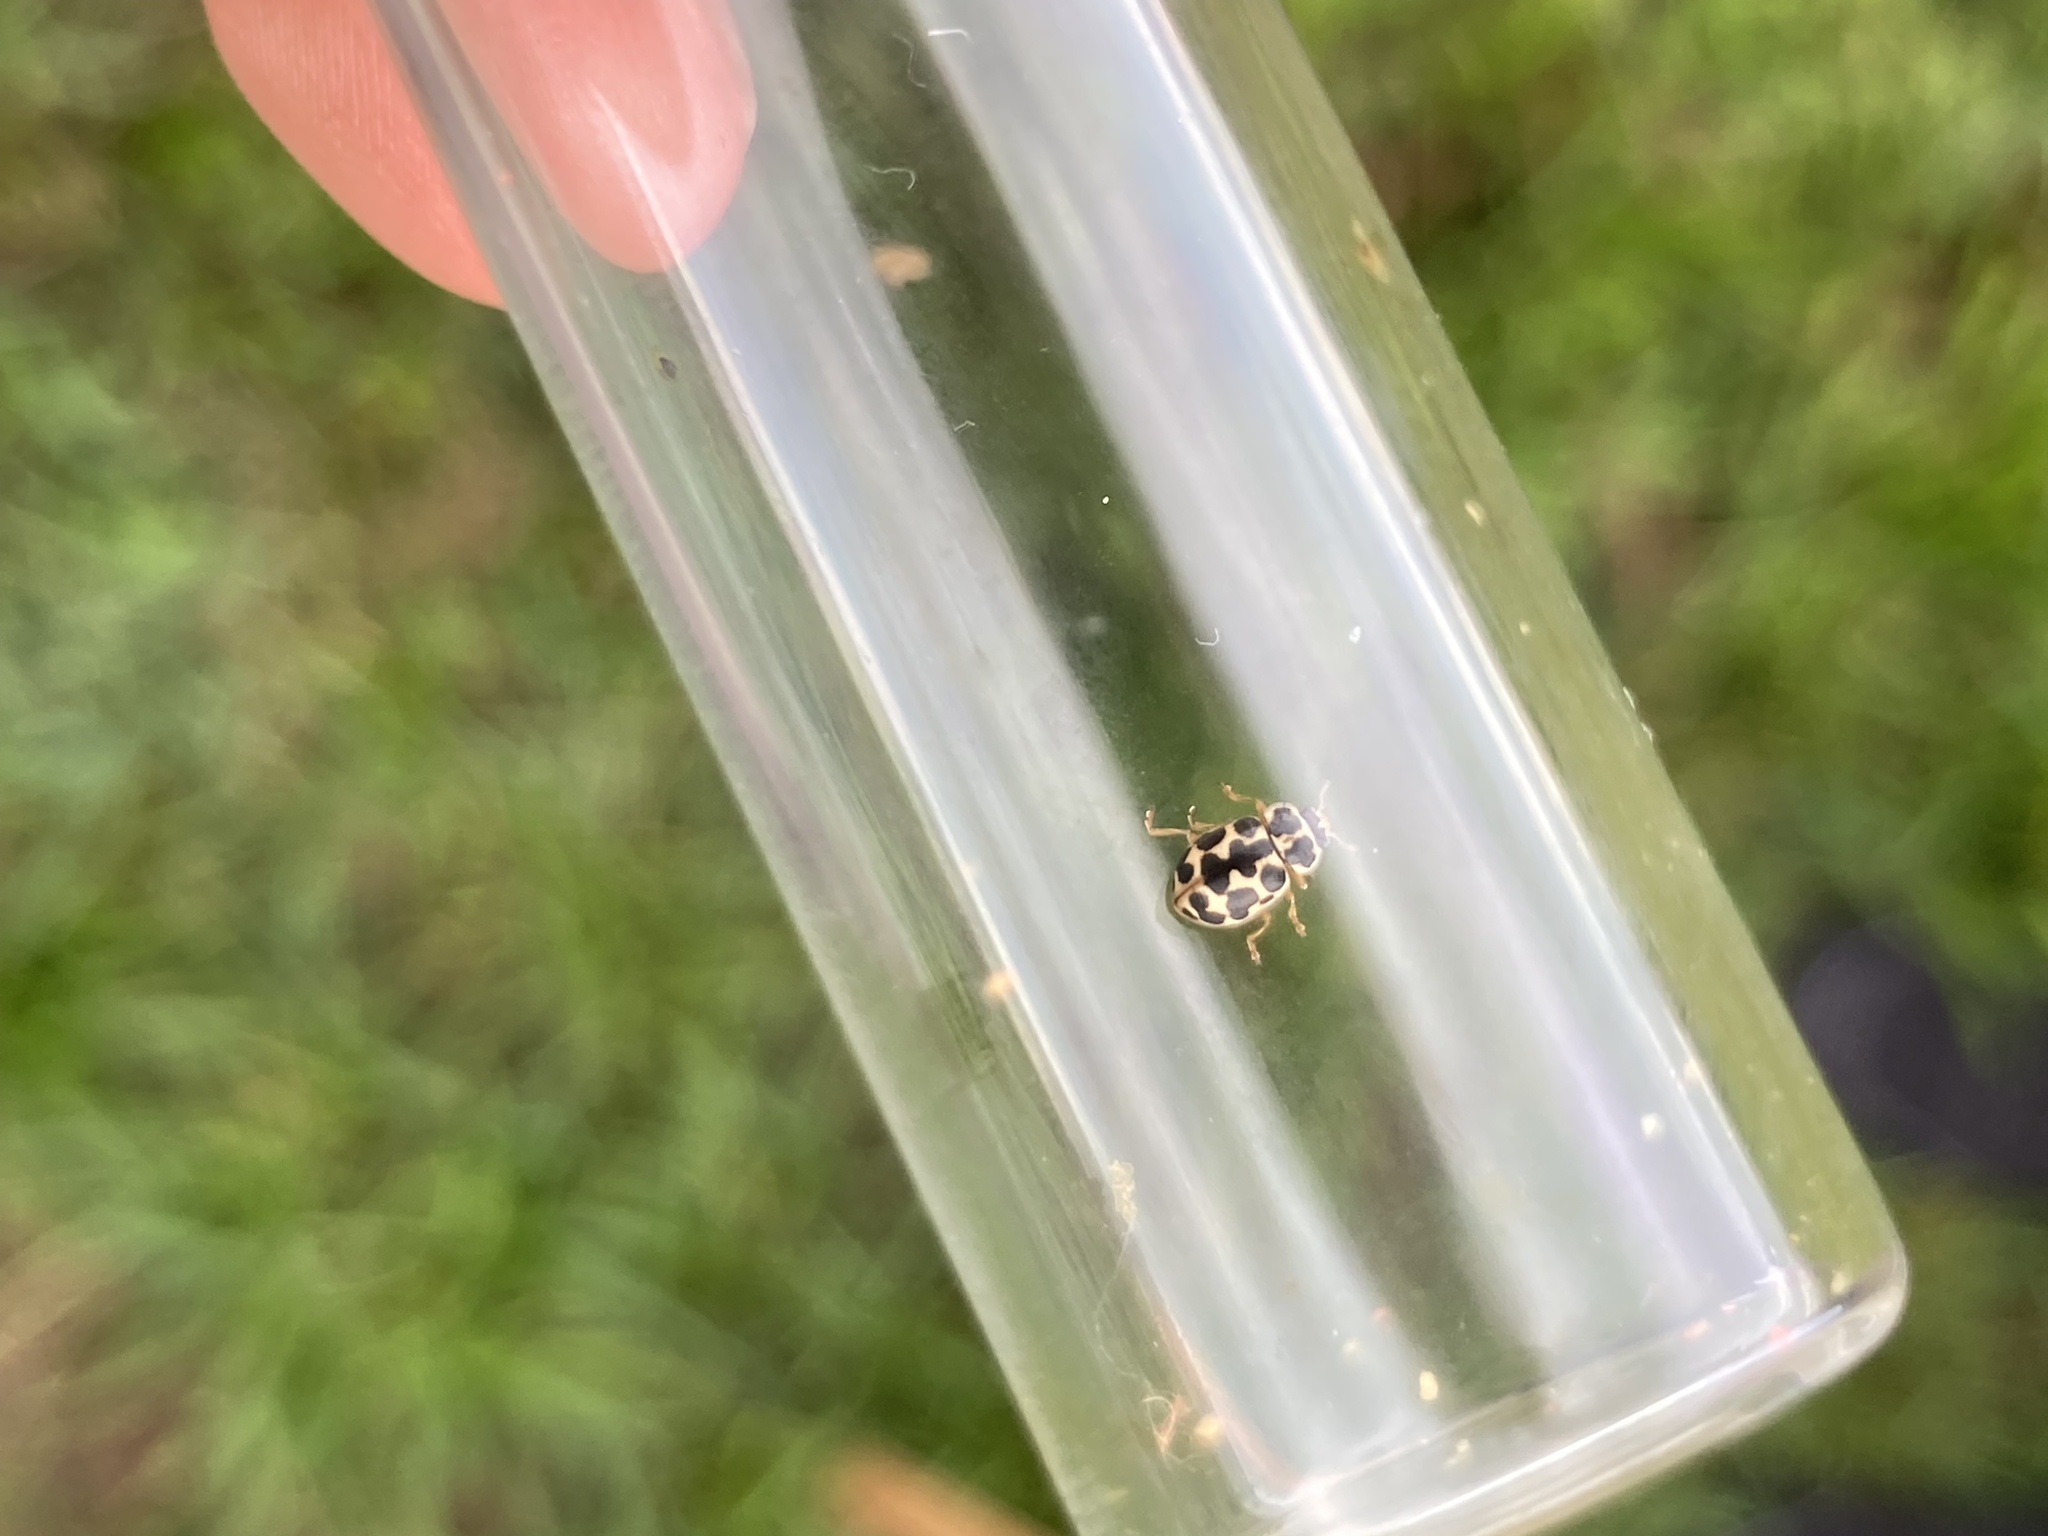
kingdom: Animalia
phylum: Arthropoda
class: Insecta
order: Coleoptera
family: Coccinellidae
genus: Anisosticta
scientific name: Anisosticta bitriangularis
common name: Marsh lady beetle
